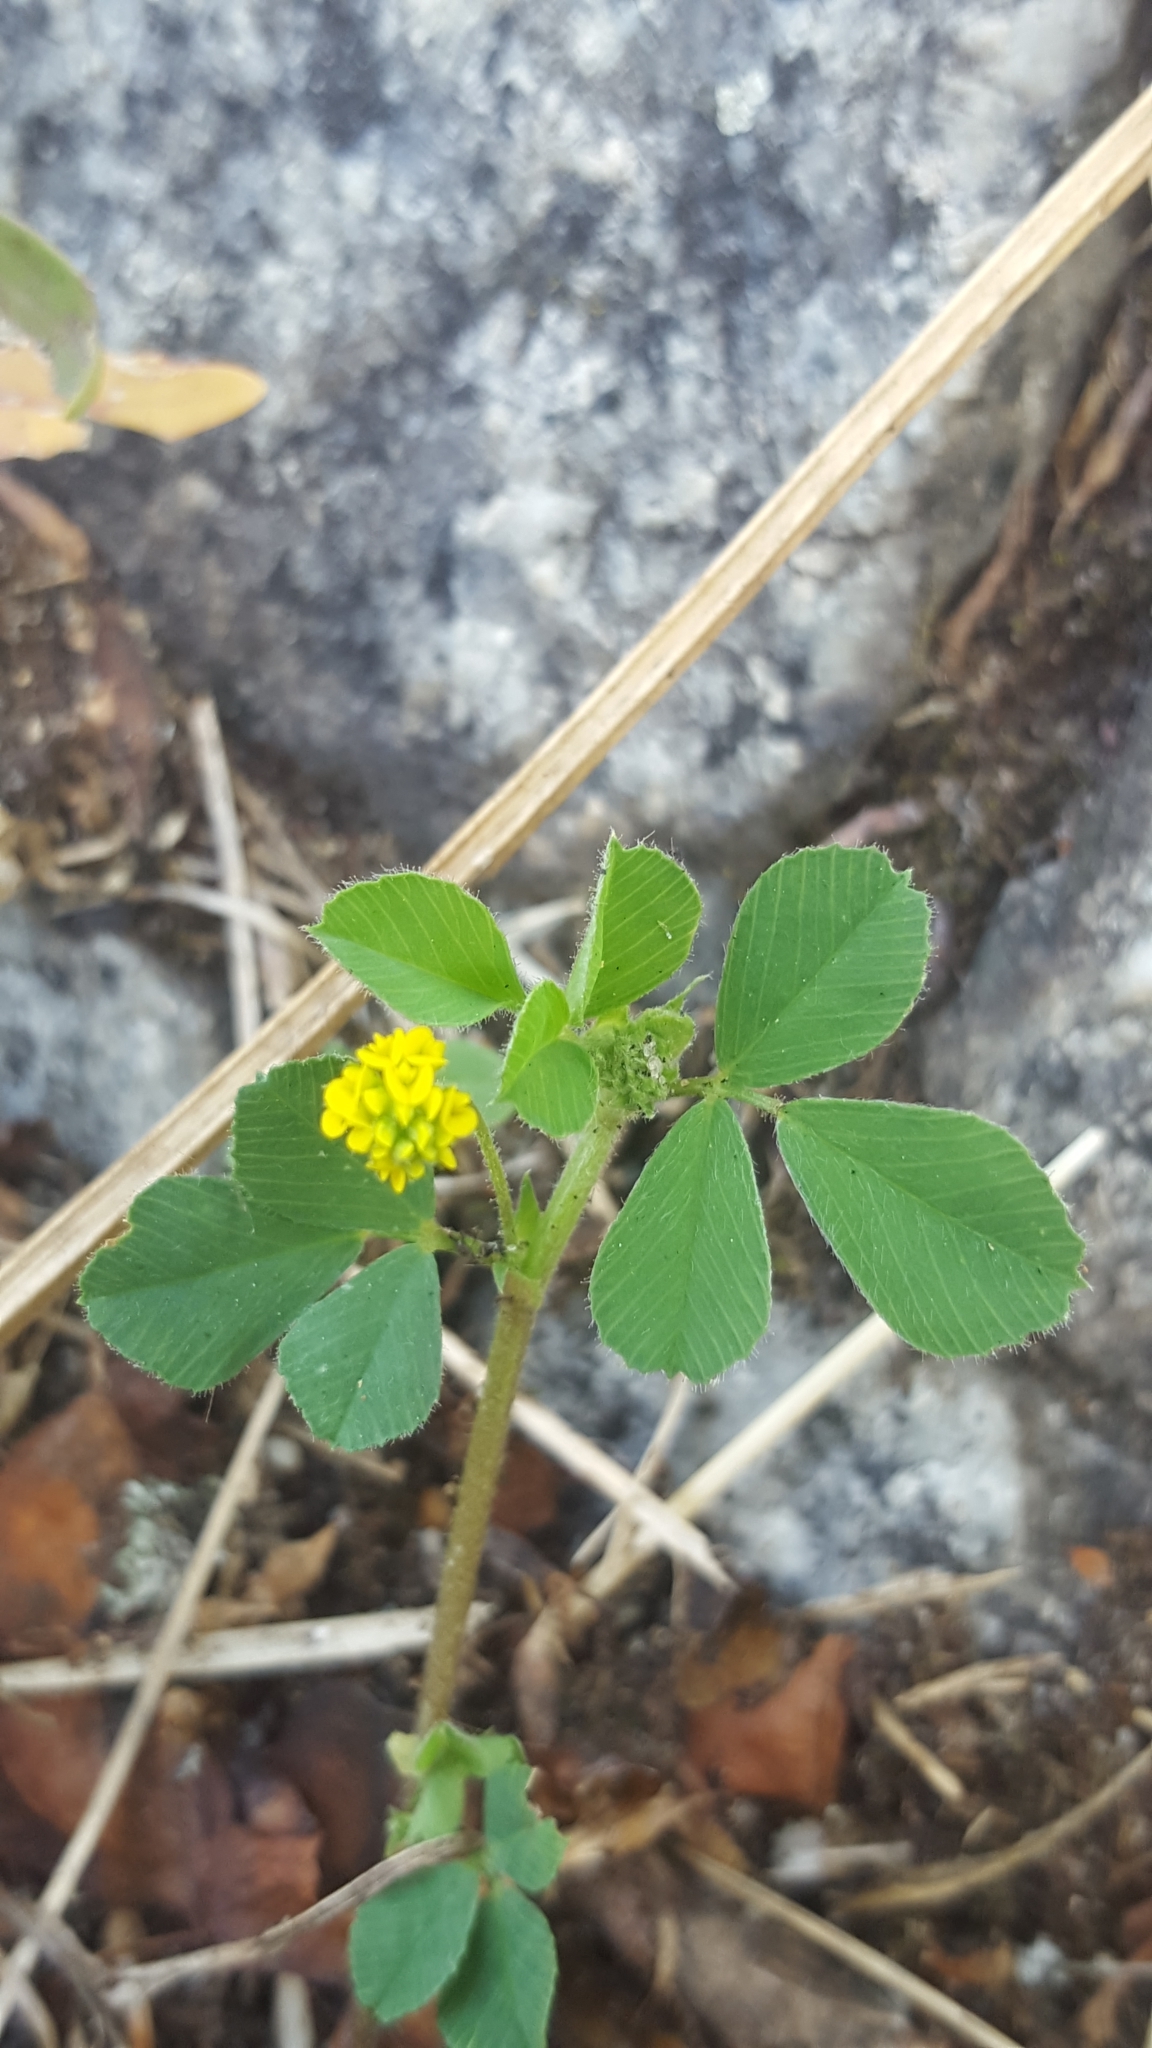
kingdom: Plantae
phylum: Tracheophyta
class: Magnoliopsida
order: Fabales
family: Fabaceae
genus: Medicago
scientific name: Medicago lupulina
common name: Black medick
